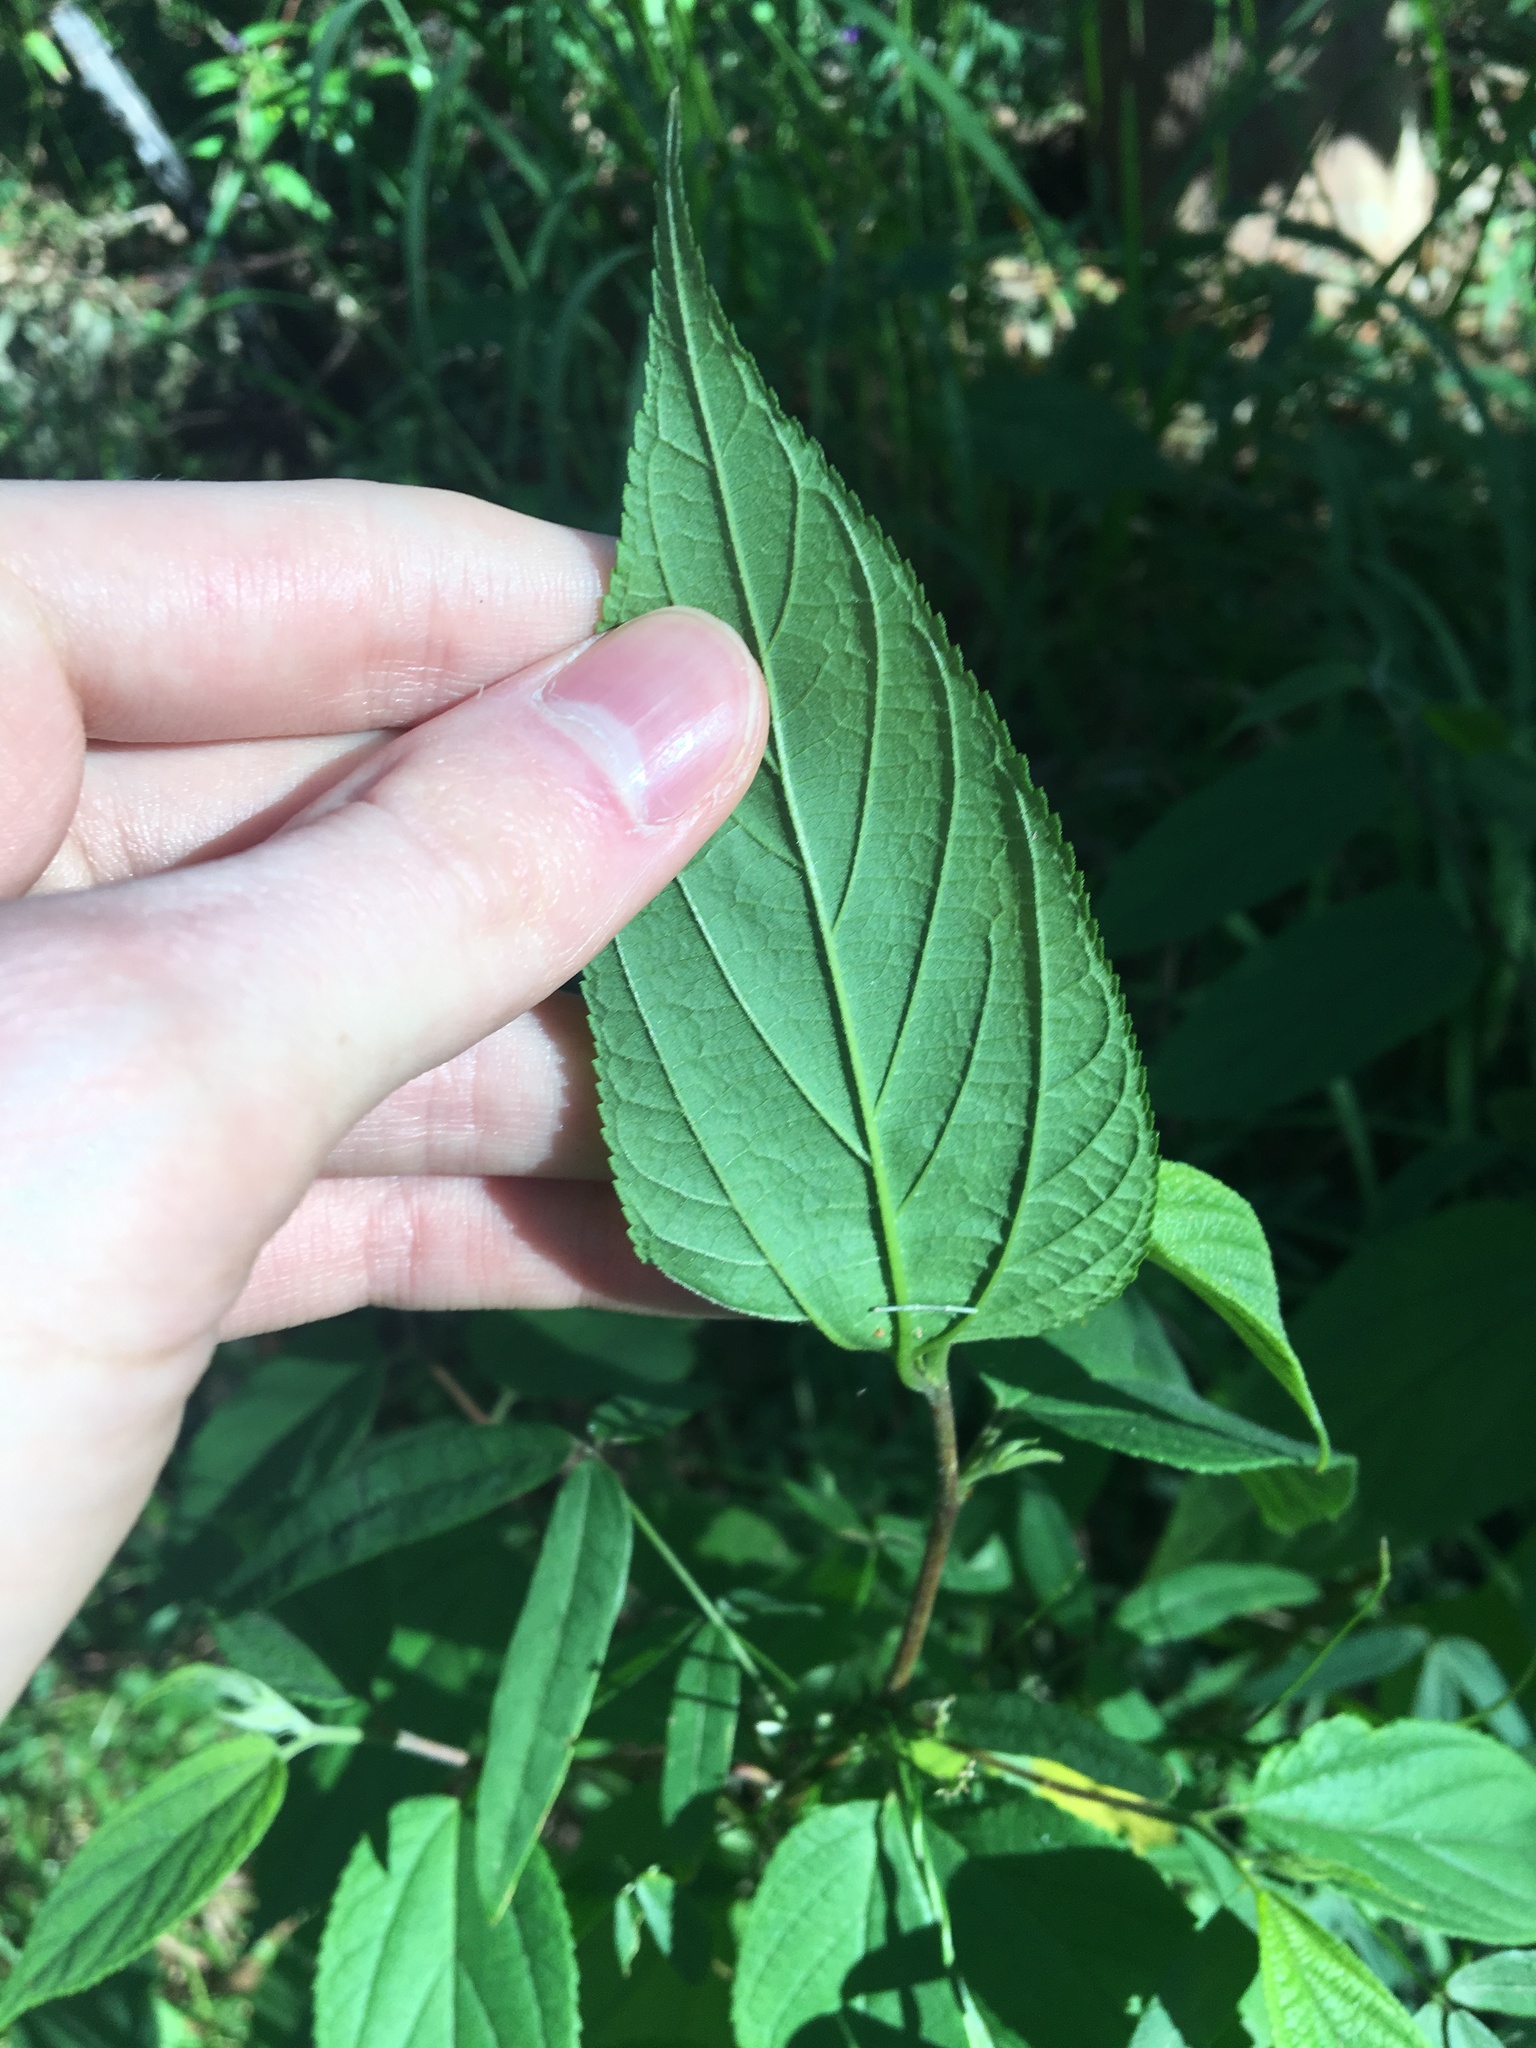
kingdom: Plantae
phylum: Tracheophyta
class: Magnoliopsida
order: Rosales
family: Cannabaceae
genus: Trema
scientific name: Trema tomentosum
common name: Peach-leaf-poisonbush
